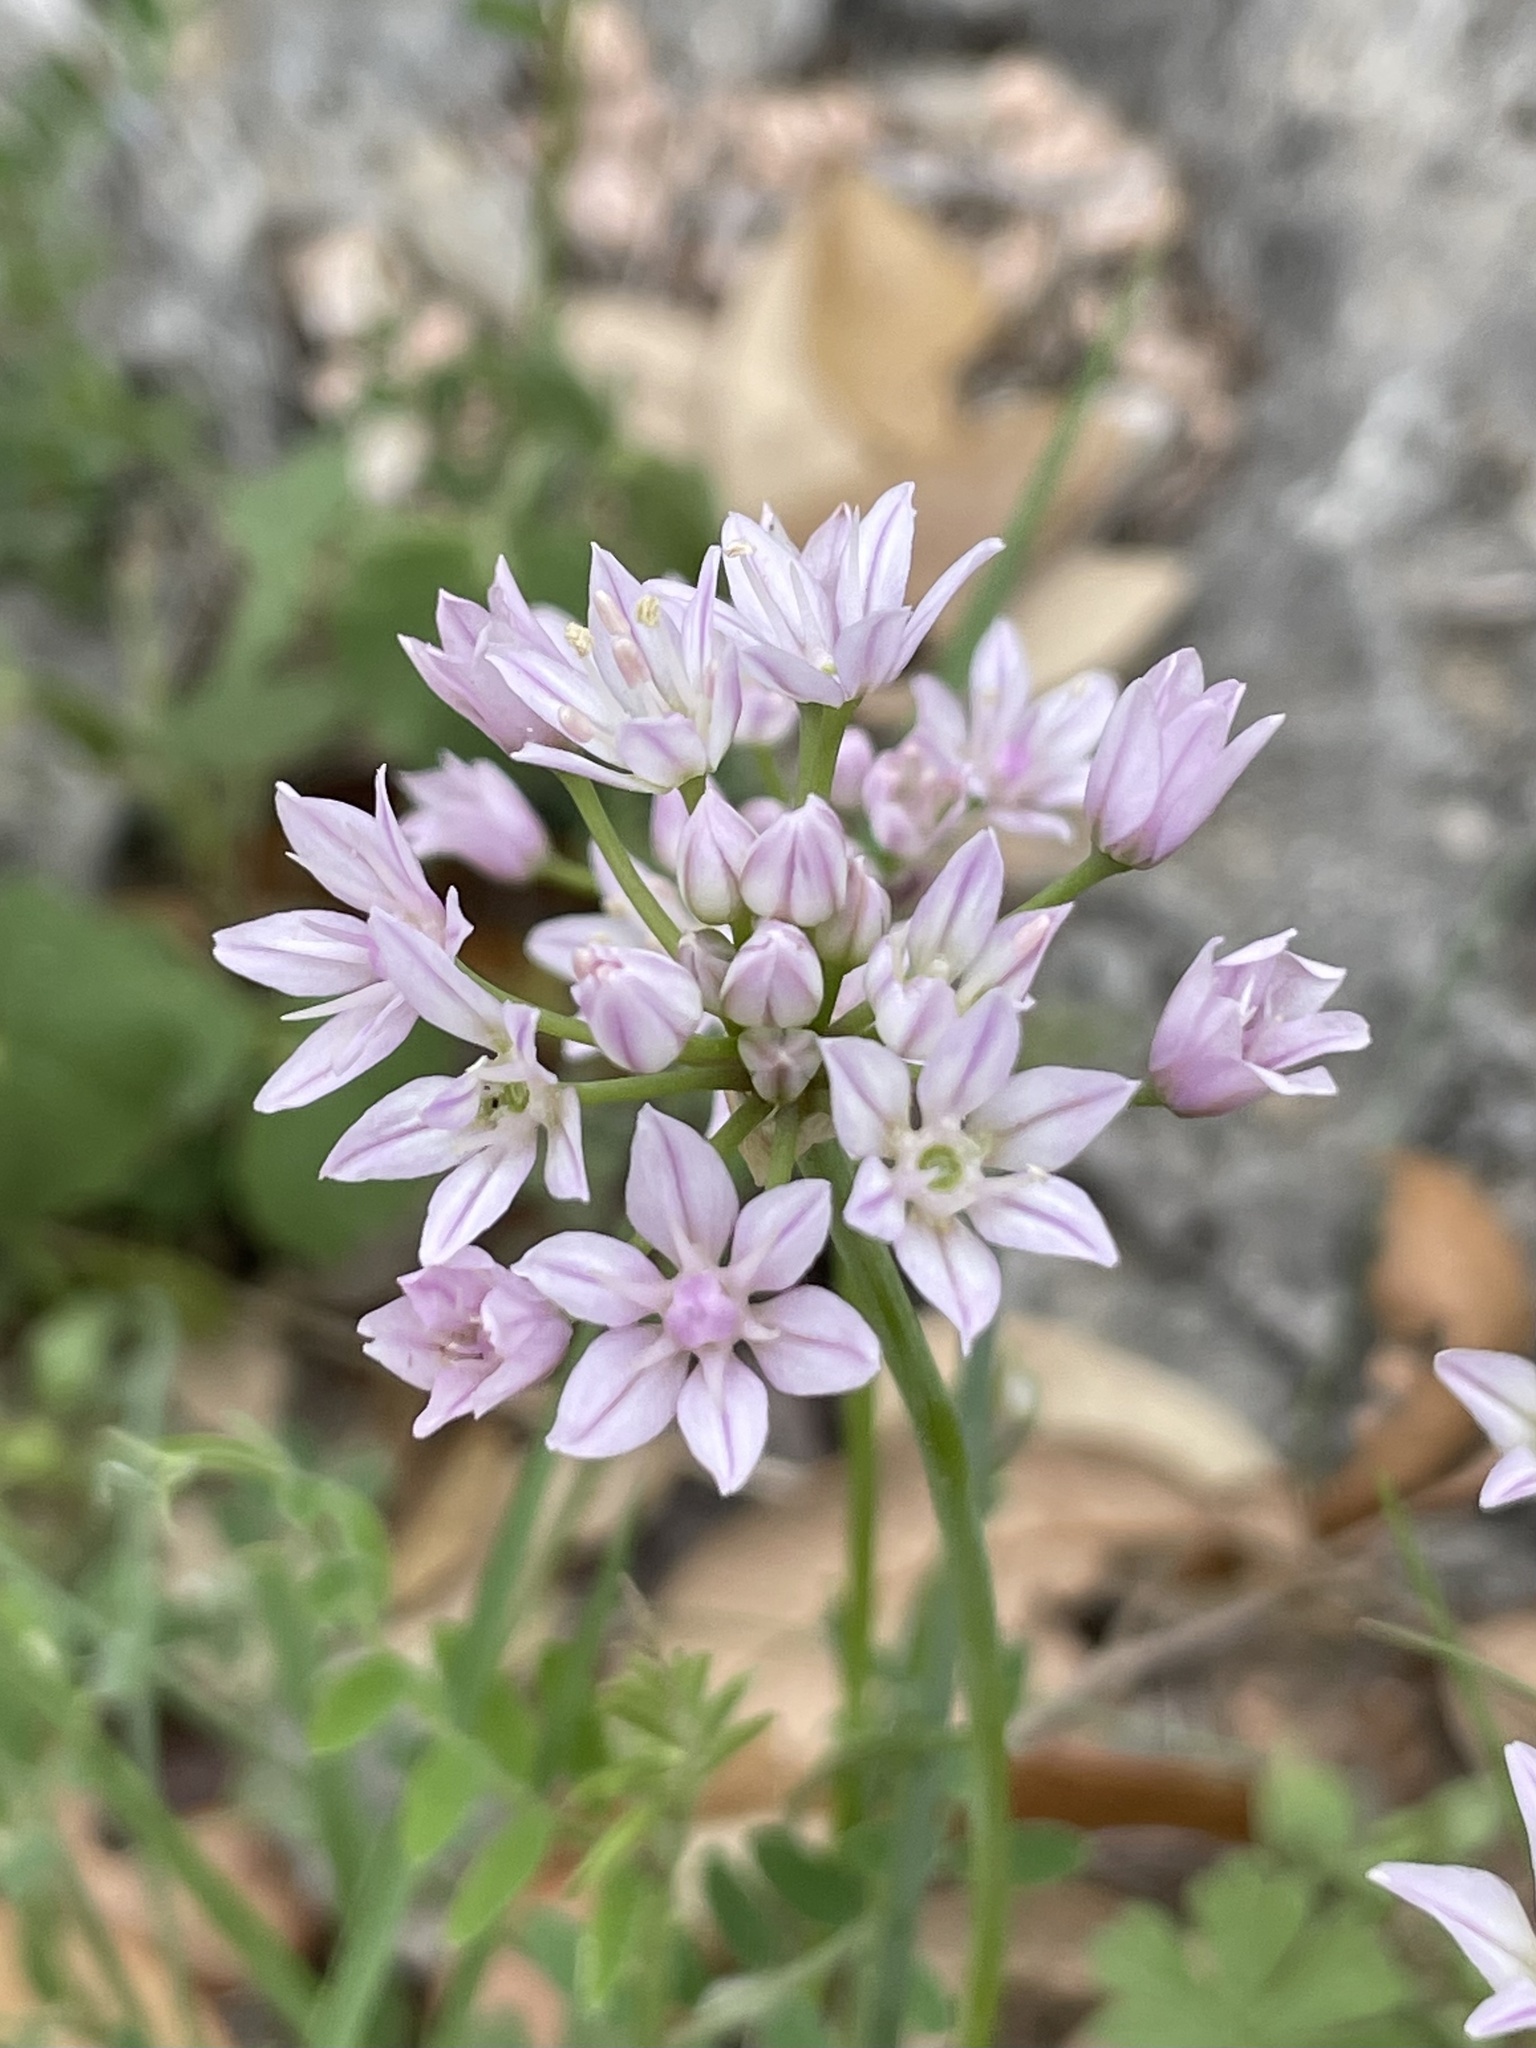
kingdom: Plantae
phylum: Tracheophyta
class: Liliopsida
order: Asparagales
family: Amaryllidaceae
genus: Allium
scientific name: Allium drummondii
